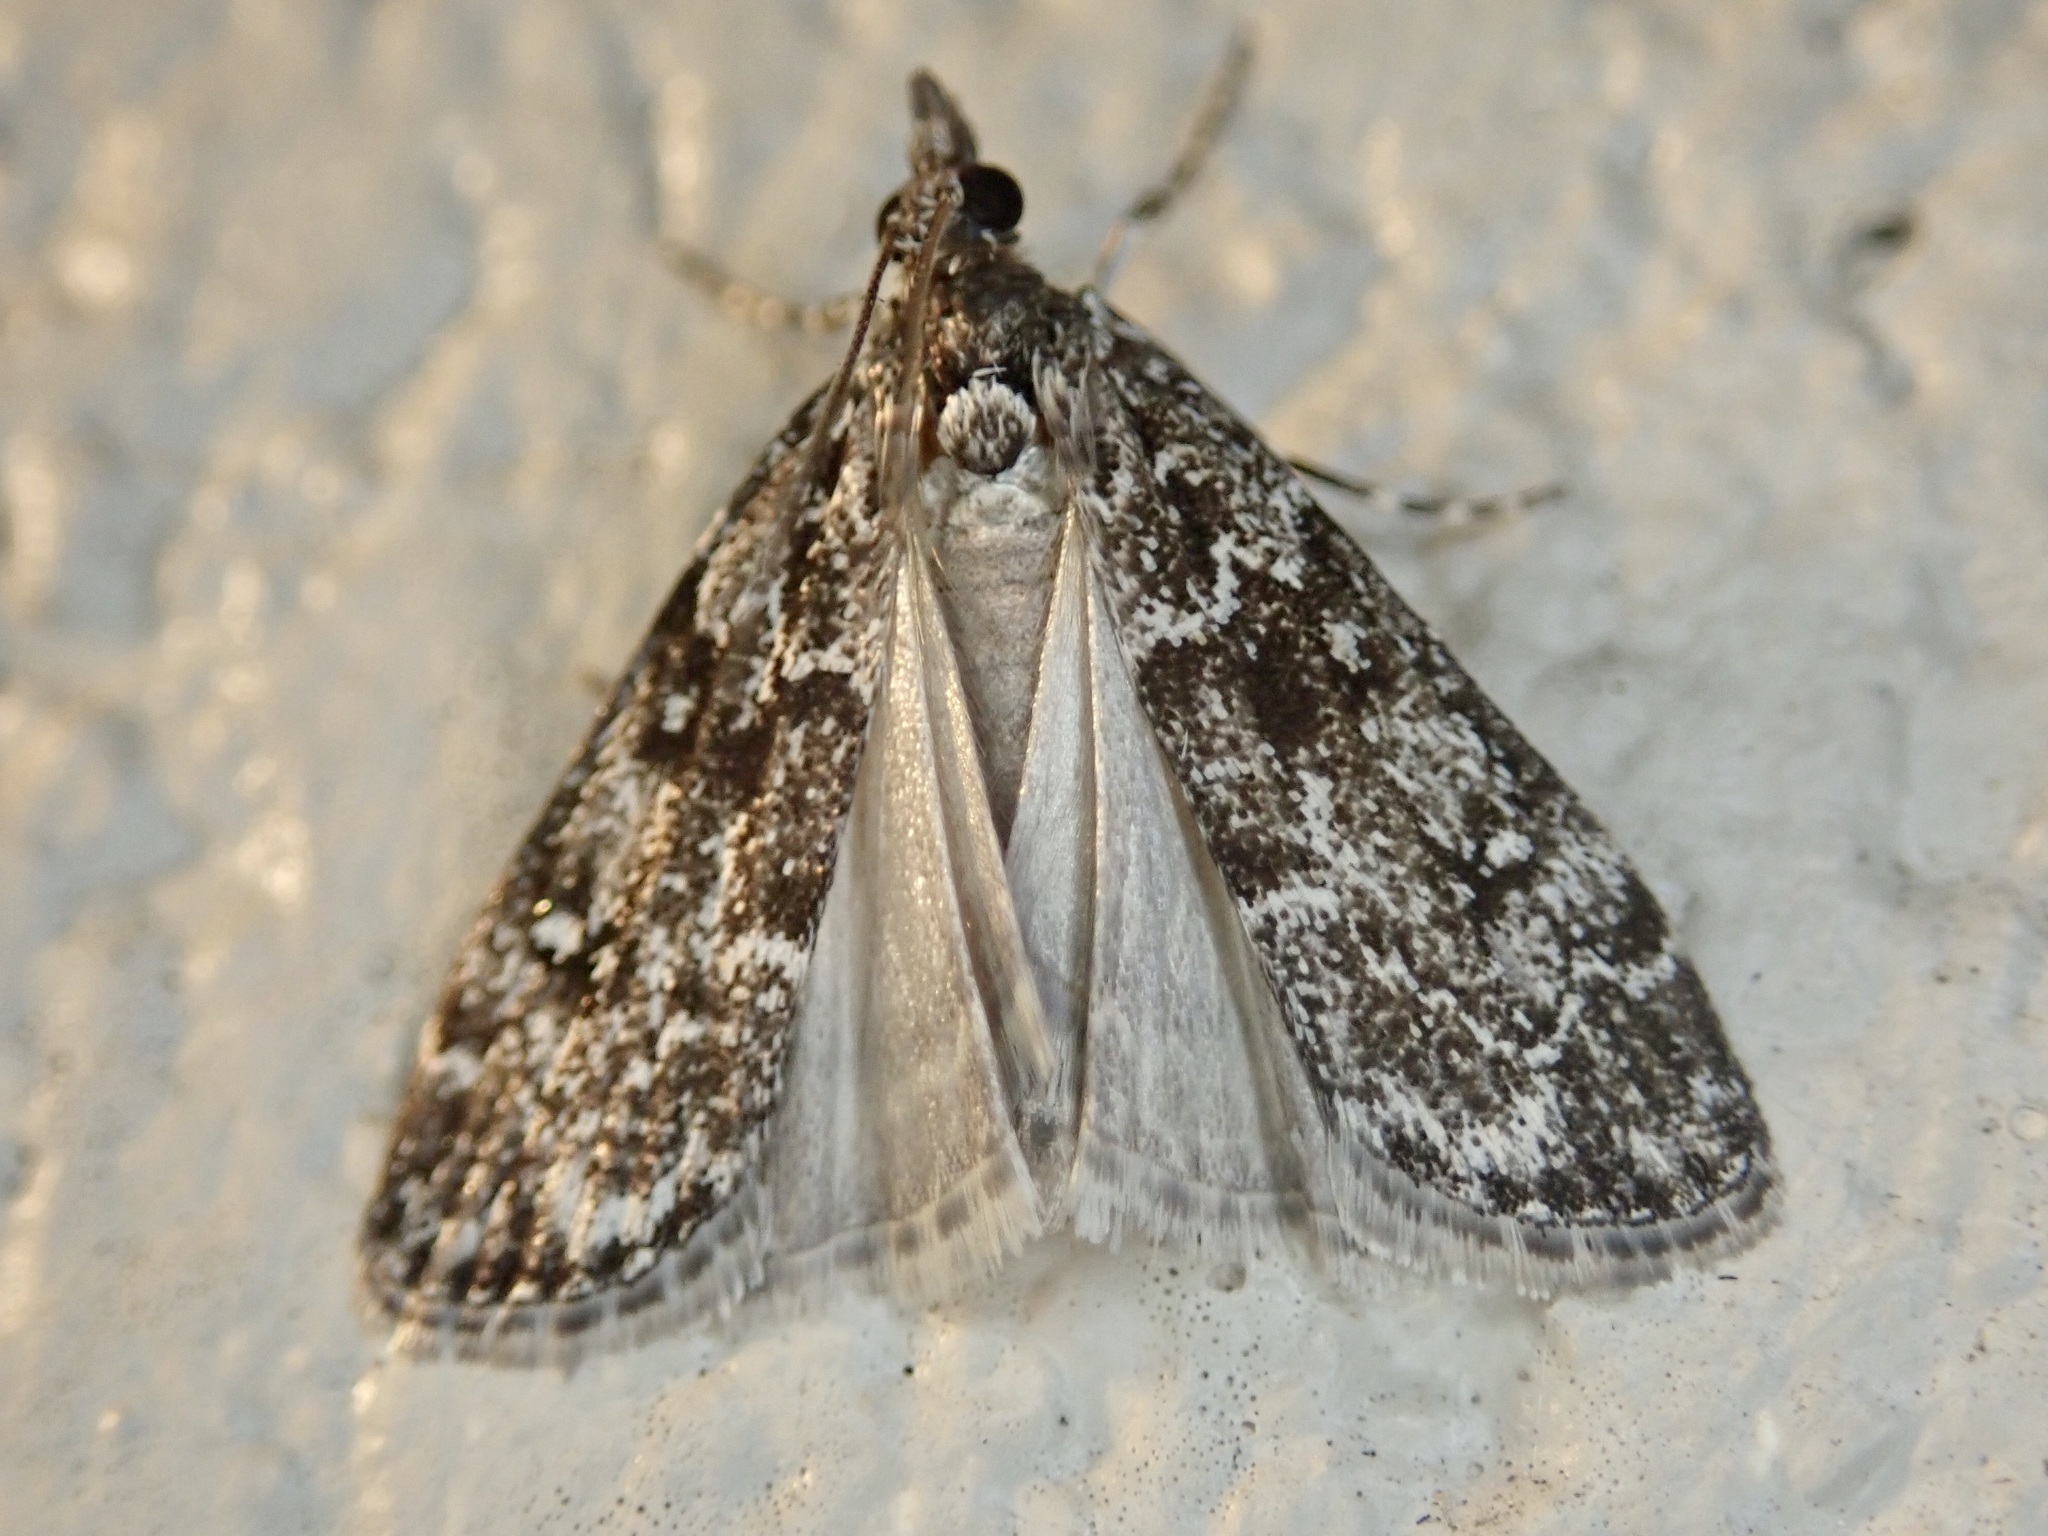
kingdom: Animalia
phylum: Arthropoda
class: Insecta
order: Lepidoptera
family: Crambidae
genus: Eudonia
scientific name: Eudonia philerga
